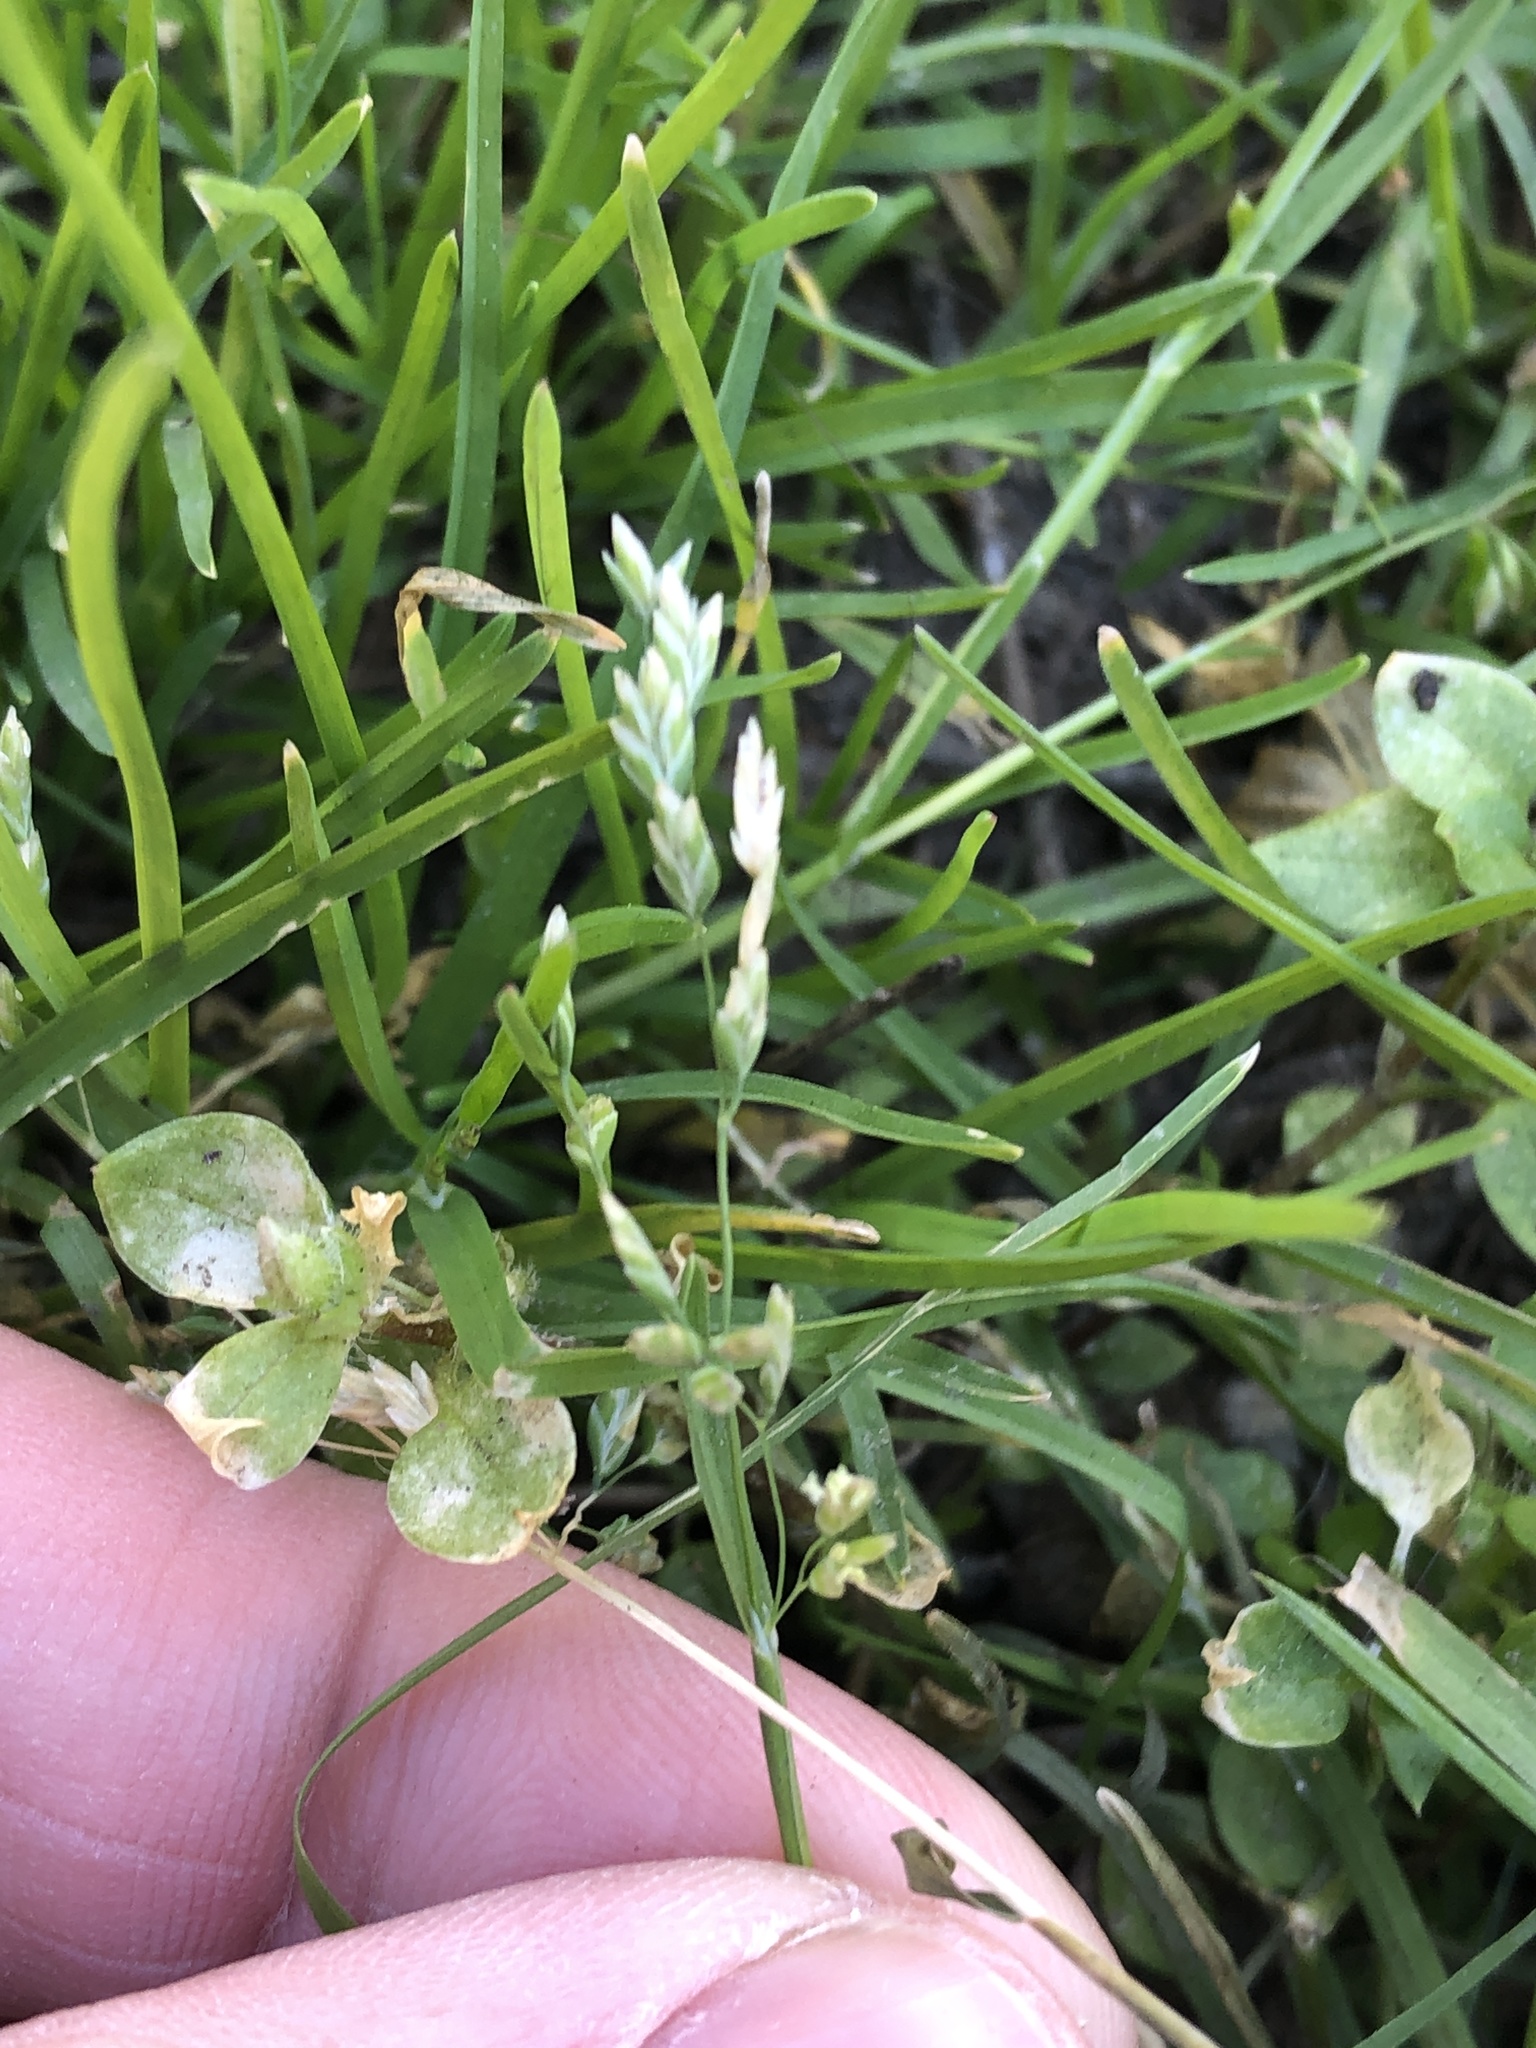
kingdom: Plantae
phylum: Tracheophyta
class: Liliopsida
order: Poales
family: Poaceae
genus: Poa
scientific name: Poa annua
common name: Annual bluegrass
